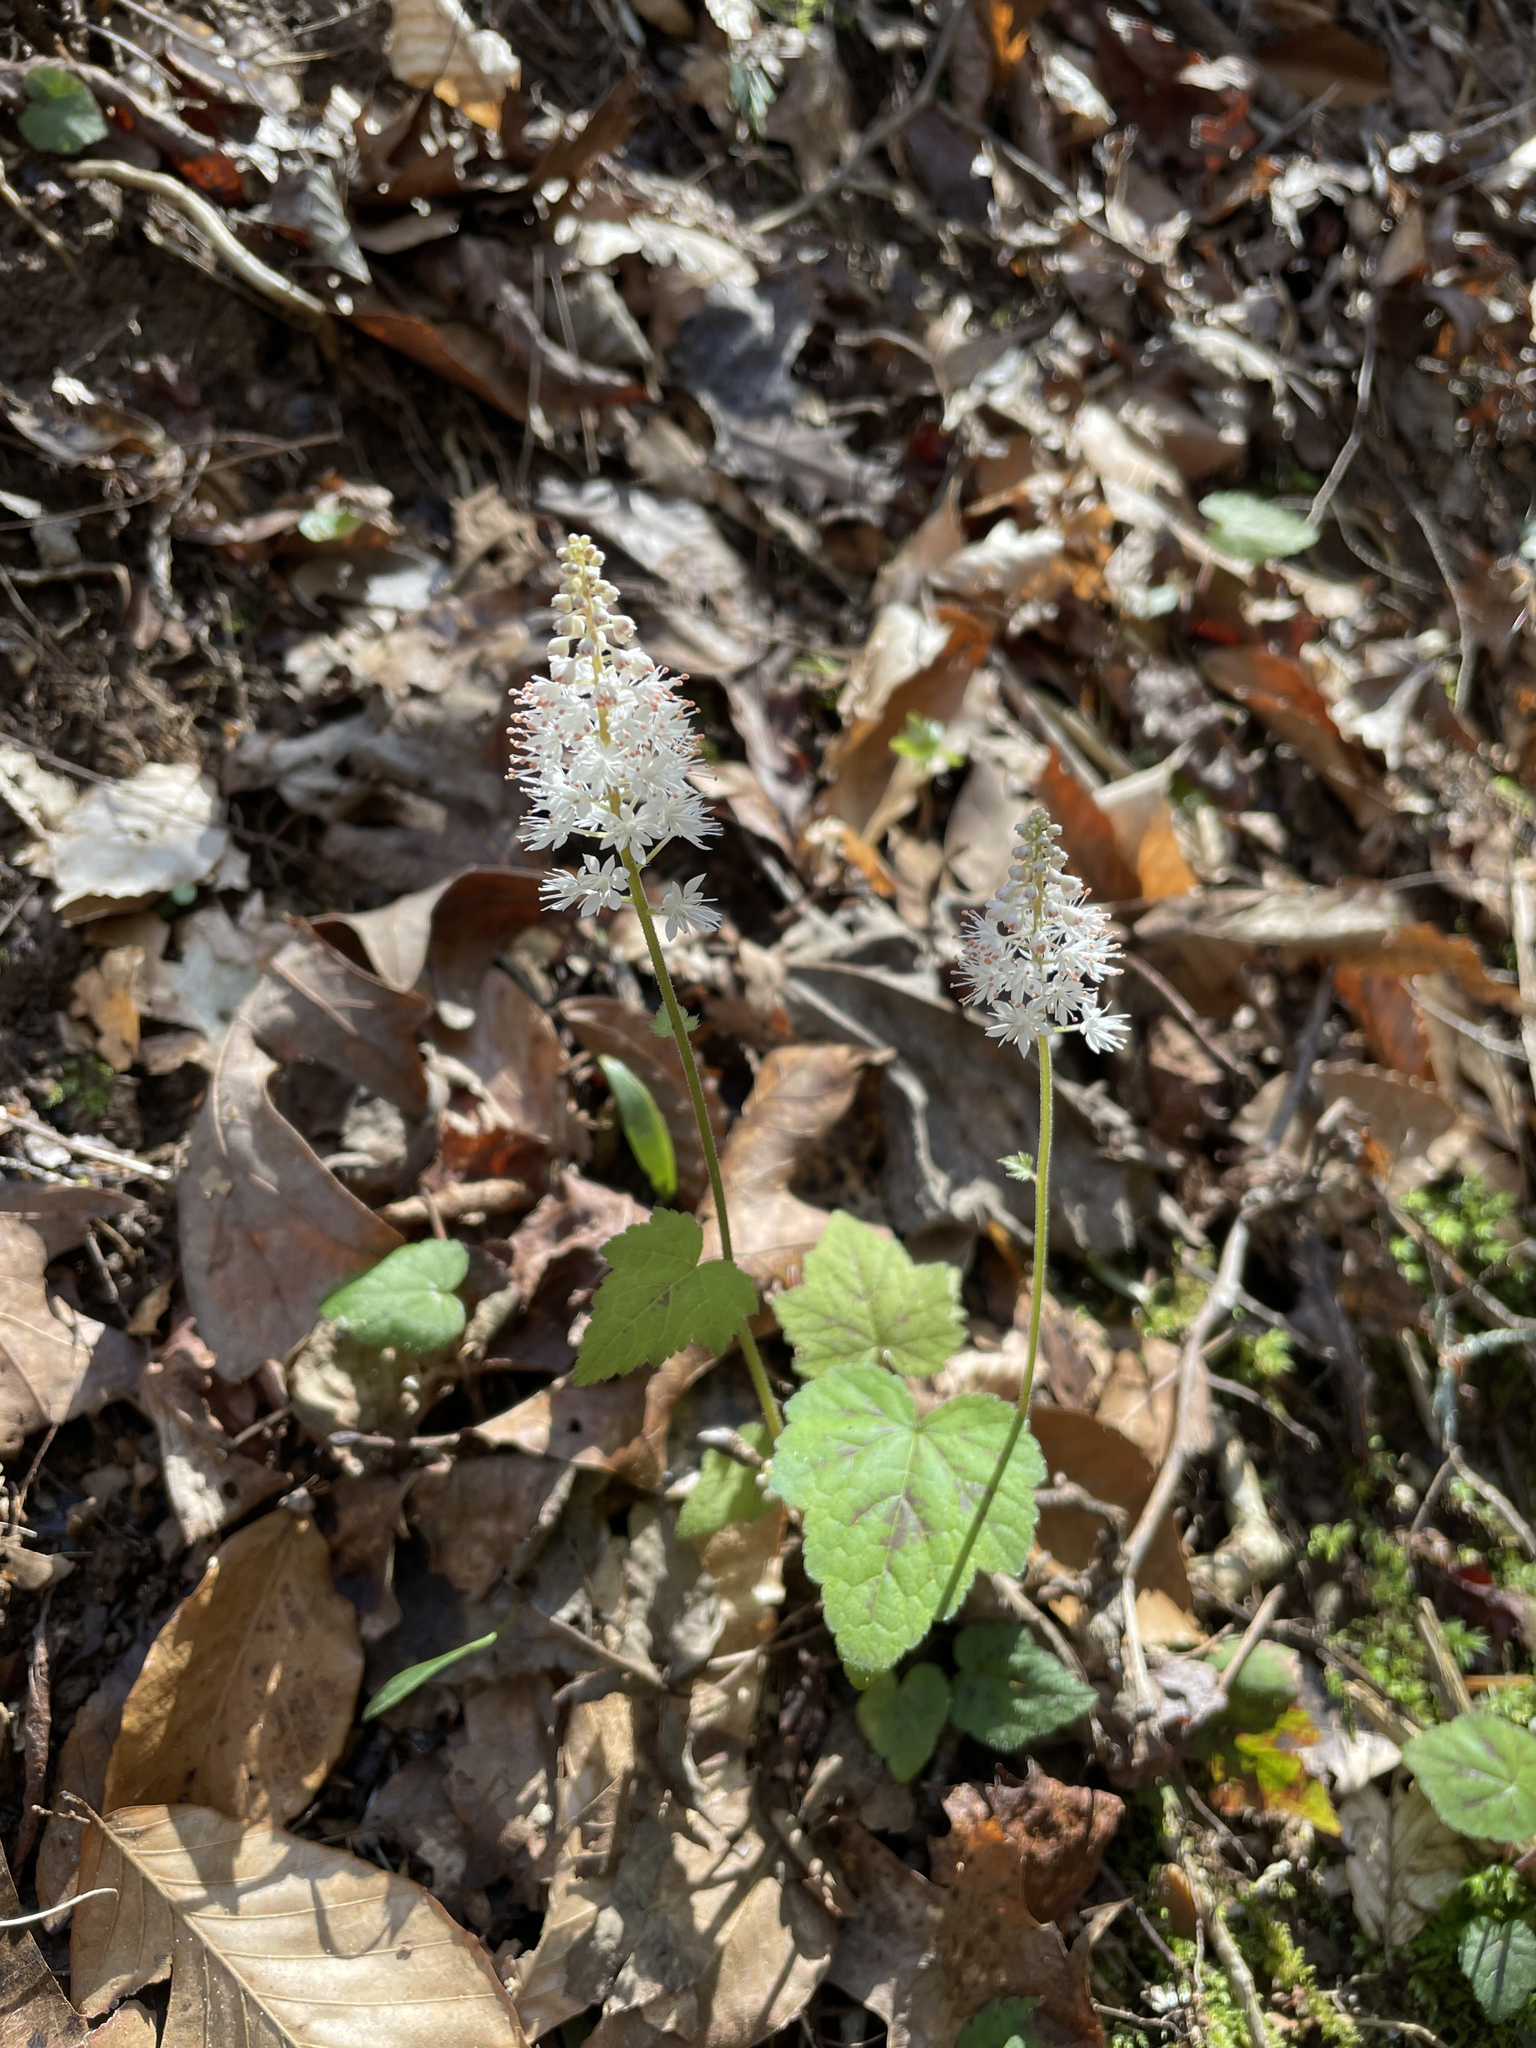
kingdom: Plantae
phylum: Tracheophyta
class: Magnoliopsida
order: Saxifragales
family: Saxifragaceae
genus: Tiarella
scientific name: Tiarella austrina
